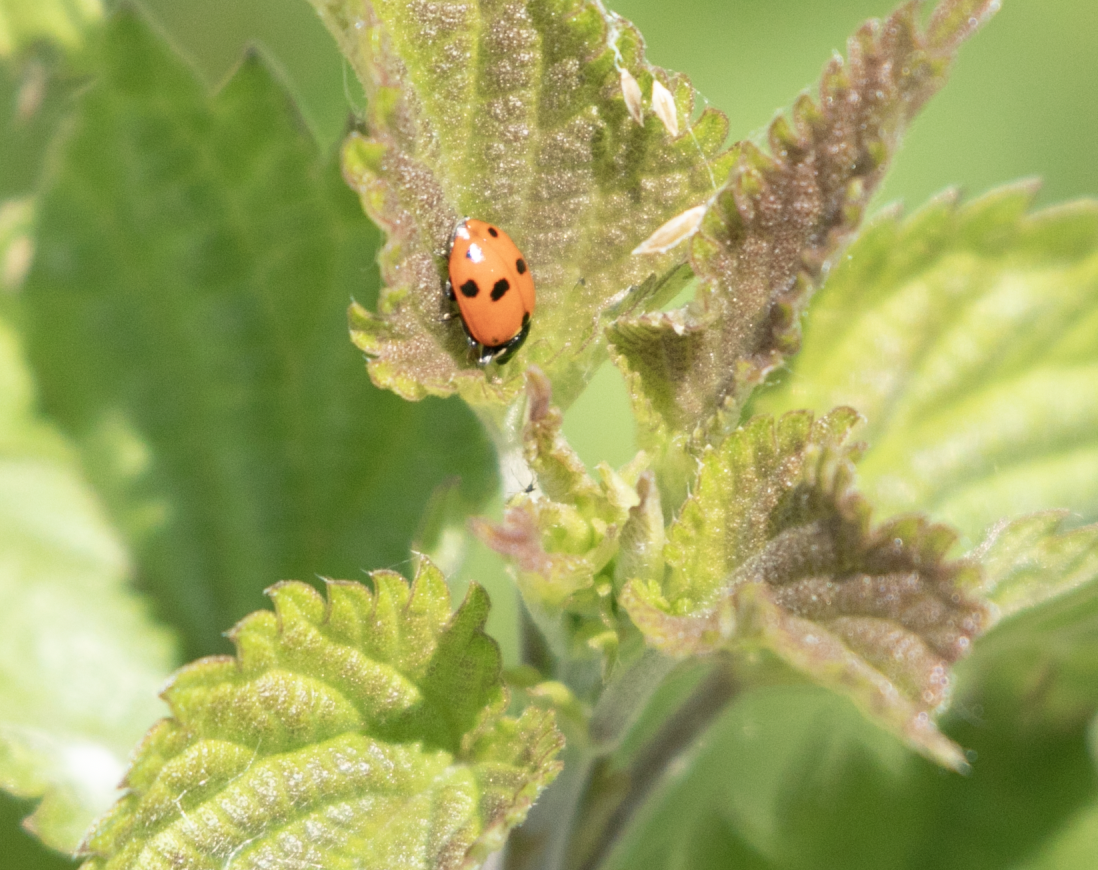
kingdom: Animalia
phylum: Arthropoda
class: Insecta
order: Coleoptera
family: Coccinellidae
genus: Hippodamia
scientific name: Hippodamia variegata
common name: Ladybird beetle
